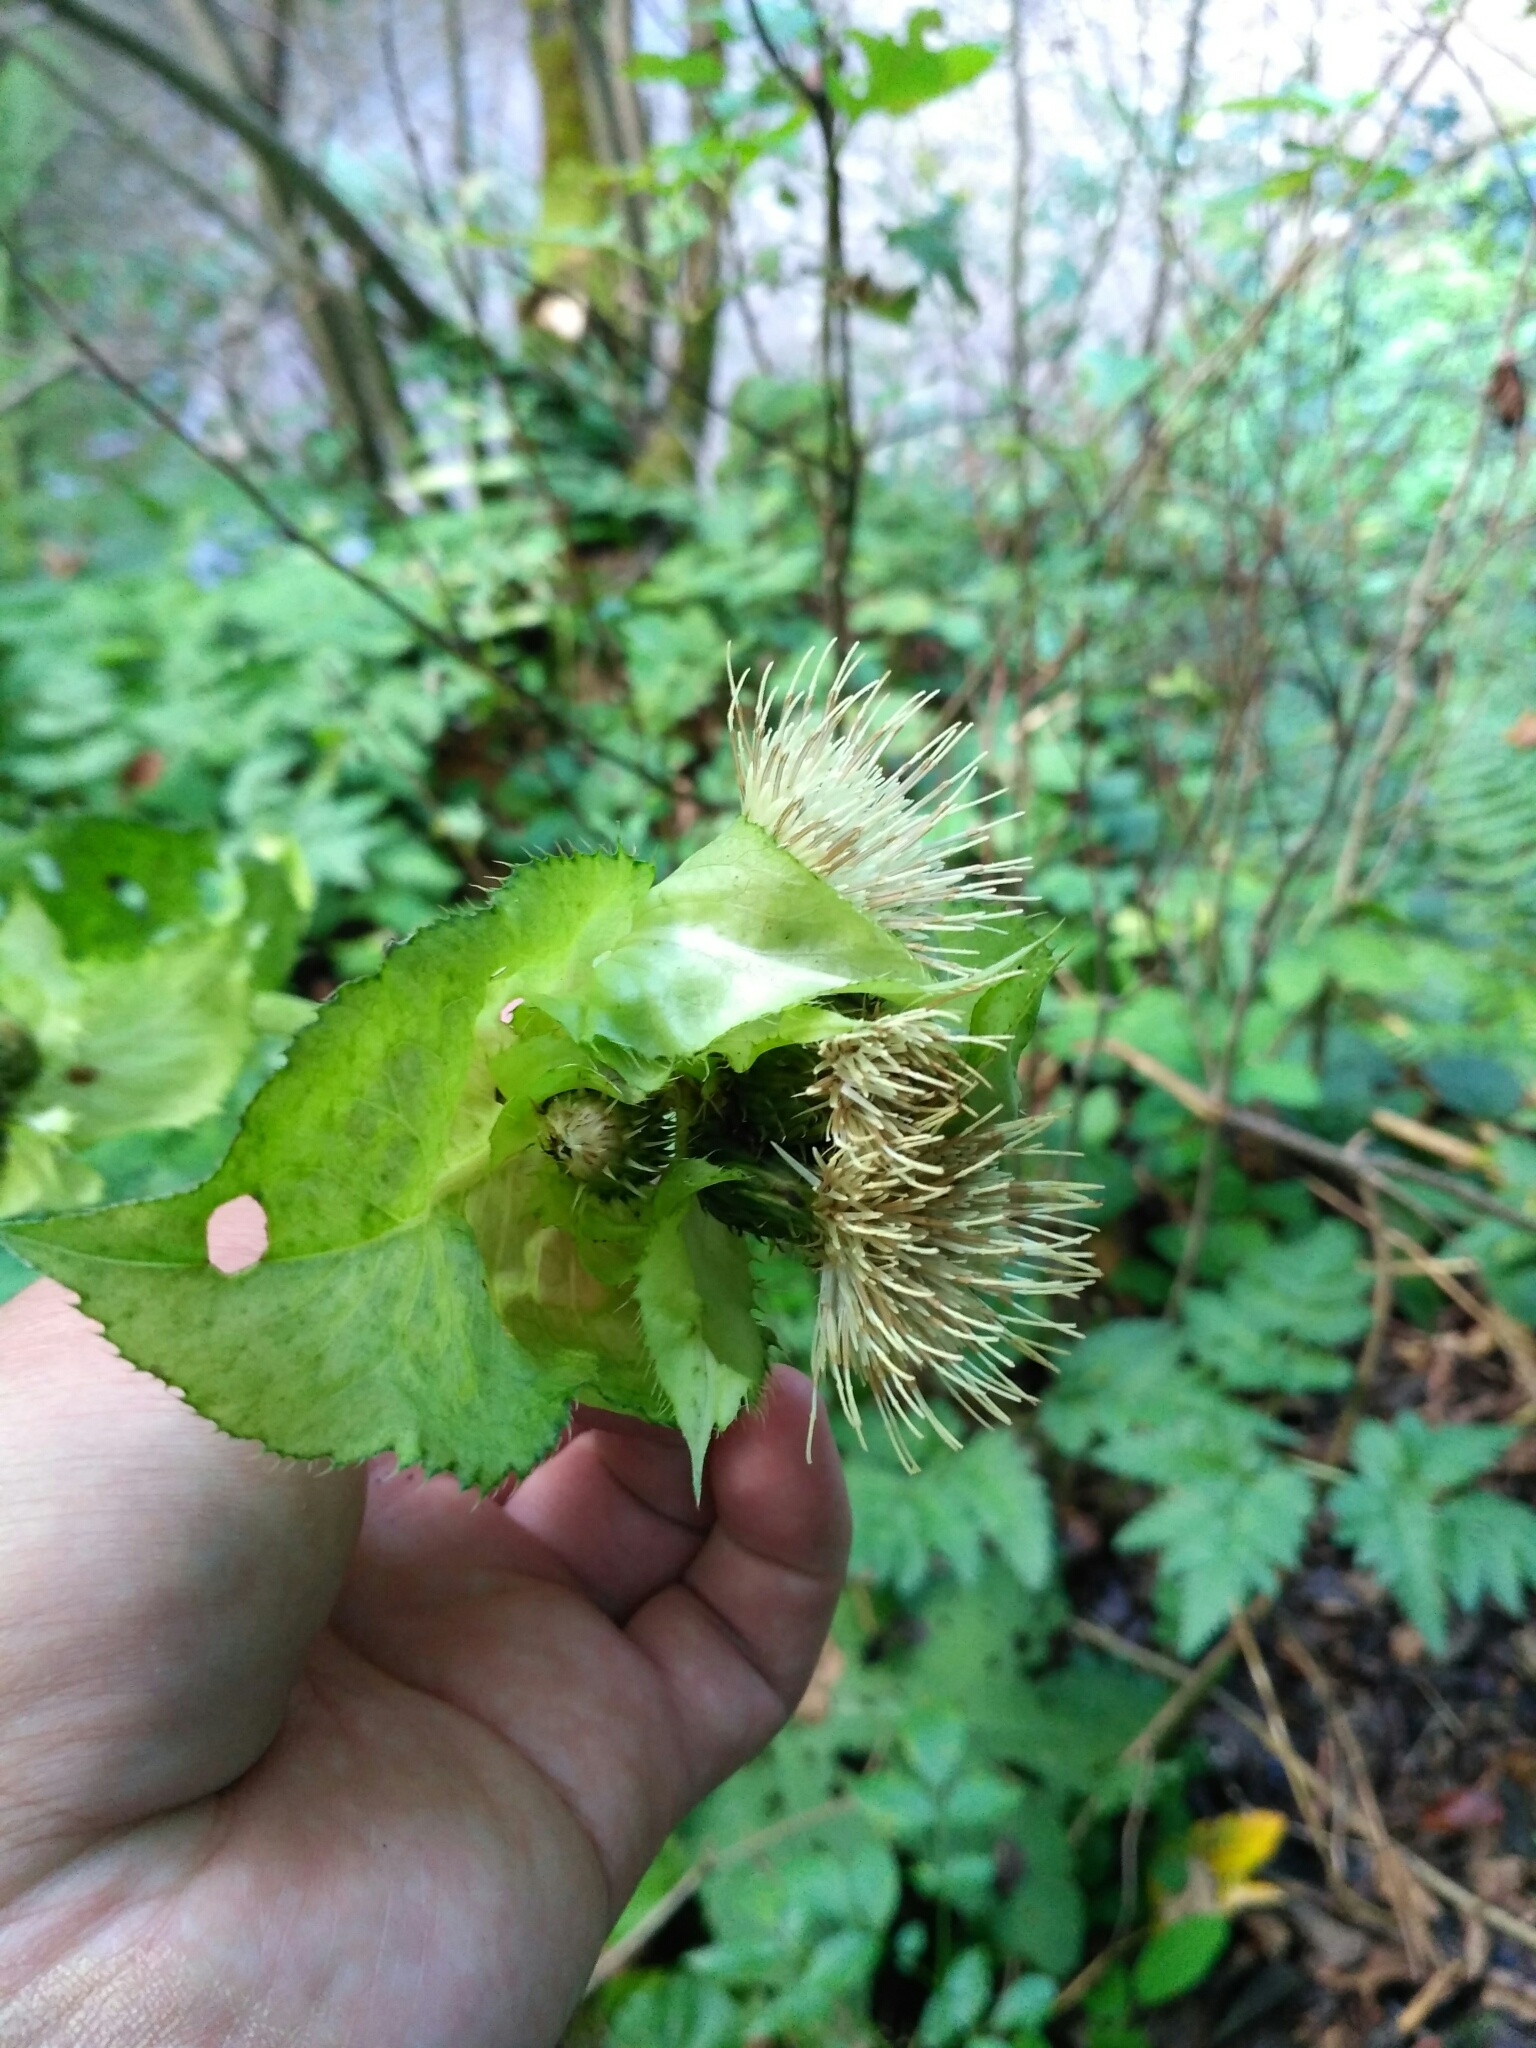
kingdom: Plantae
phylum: Tracheophyta
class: Magnoliopsida
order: Asterales
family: Asteraceae
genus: Cirsium
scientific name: Cirsium oleraceum
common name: Cabbage thistle
